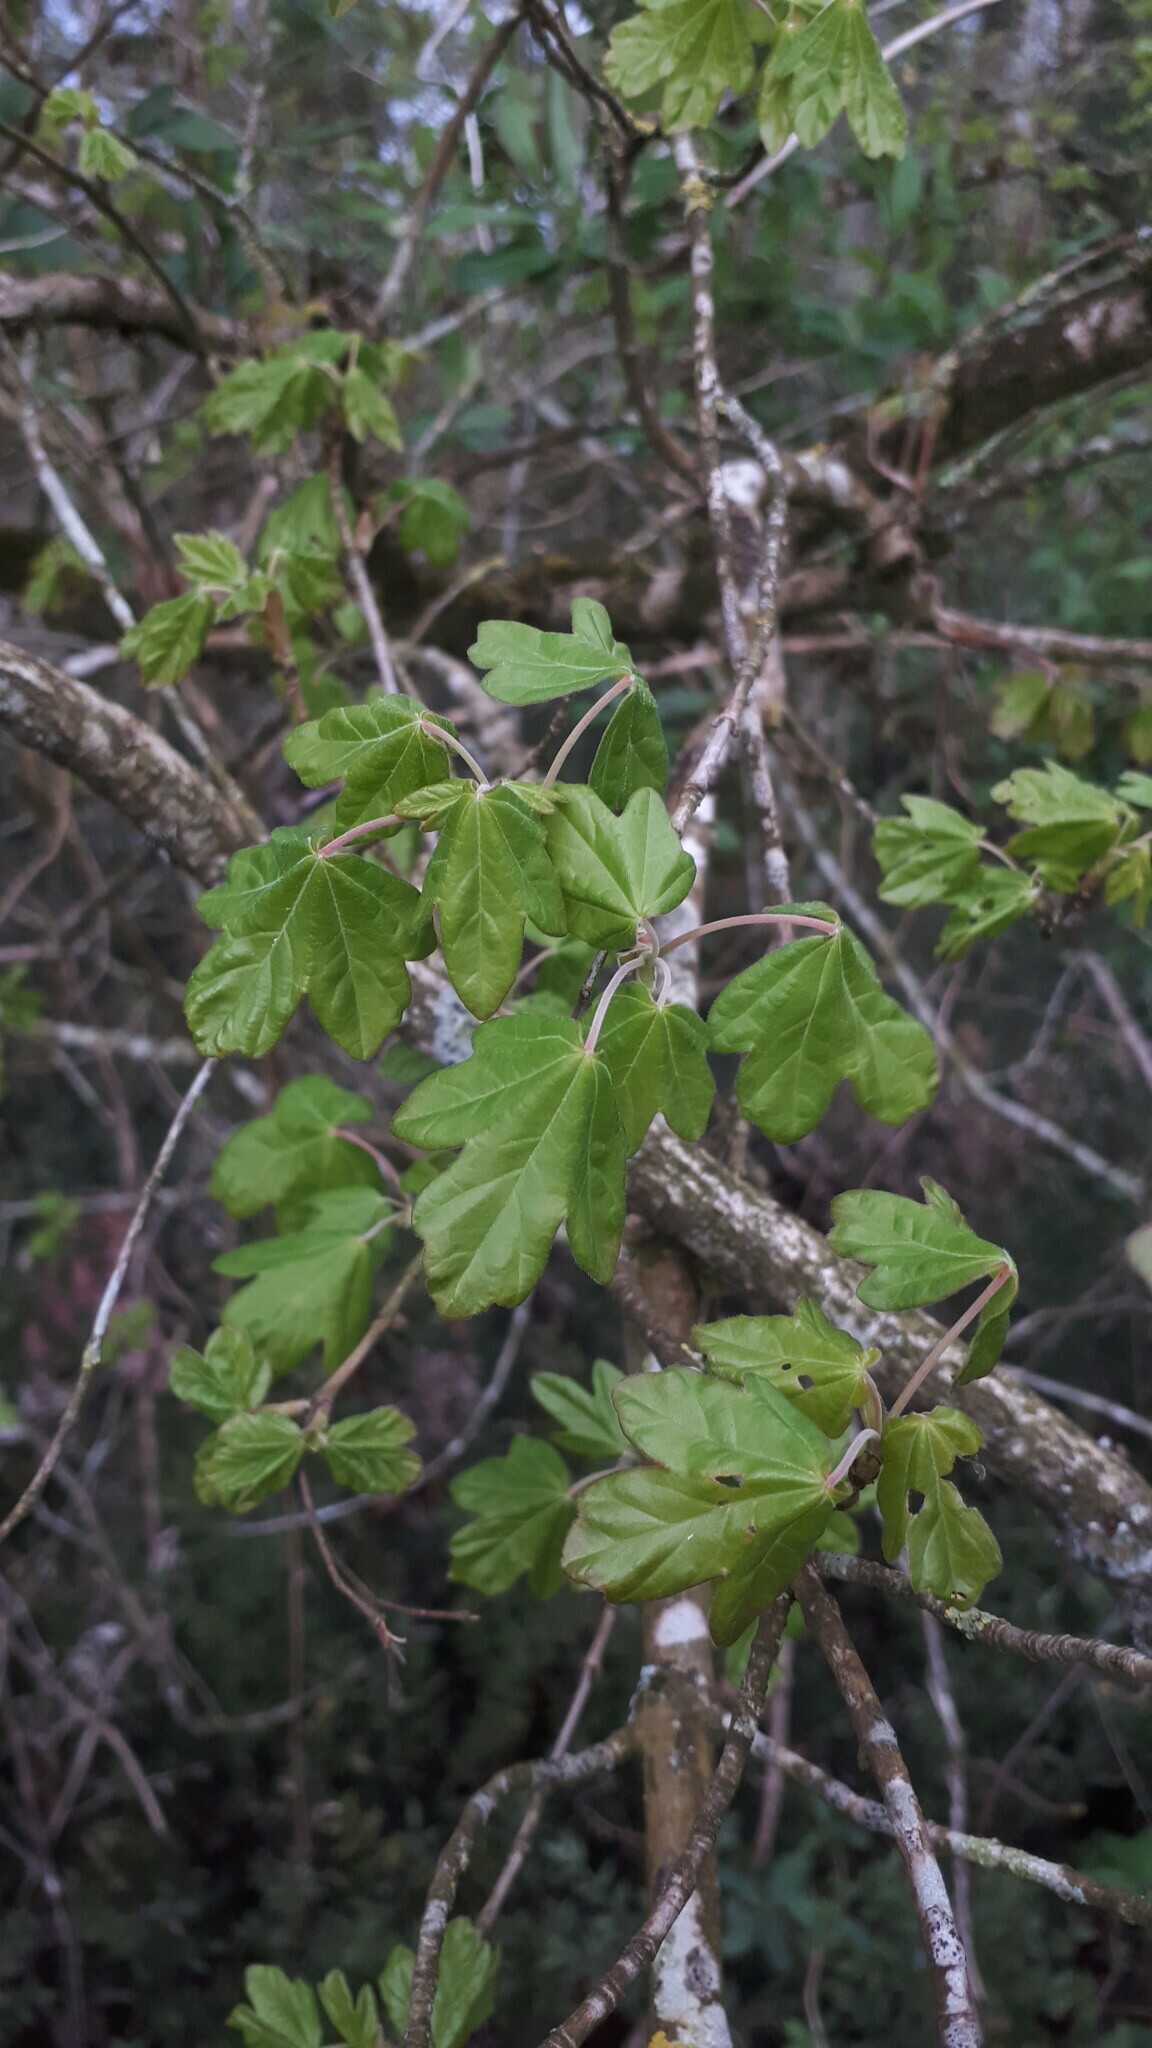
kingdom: Plantae
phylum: Tracheophyta
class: Magnoliopsida
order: Sapindales
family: Sapindaceae
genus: Acer
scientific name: Acer campestre
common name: Field maple
